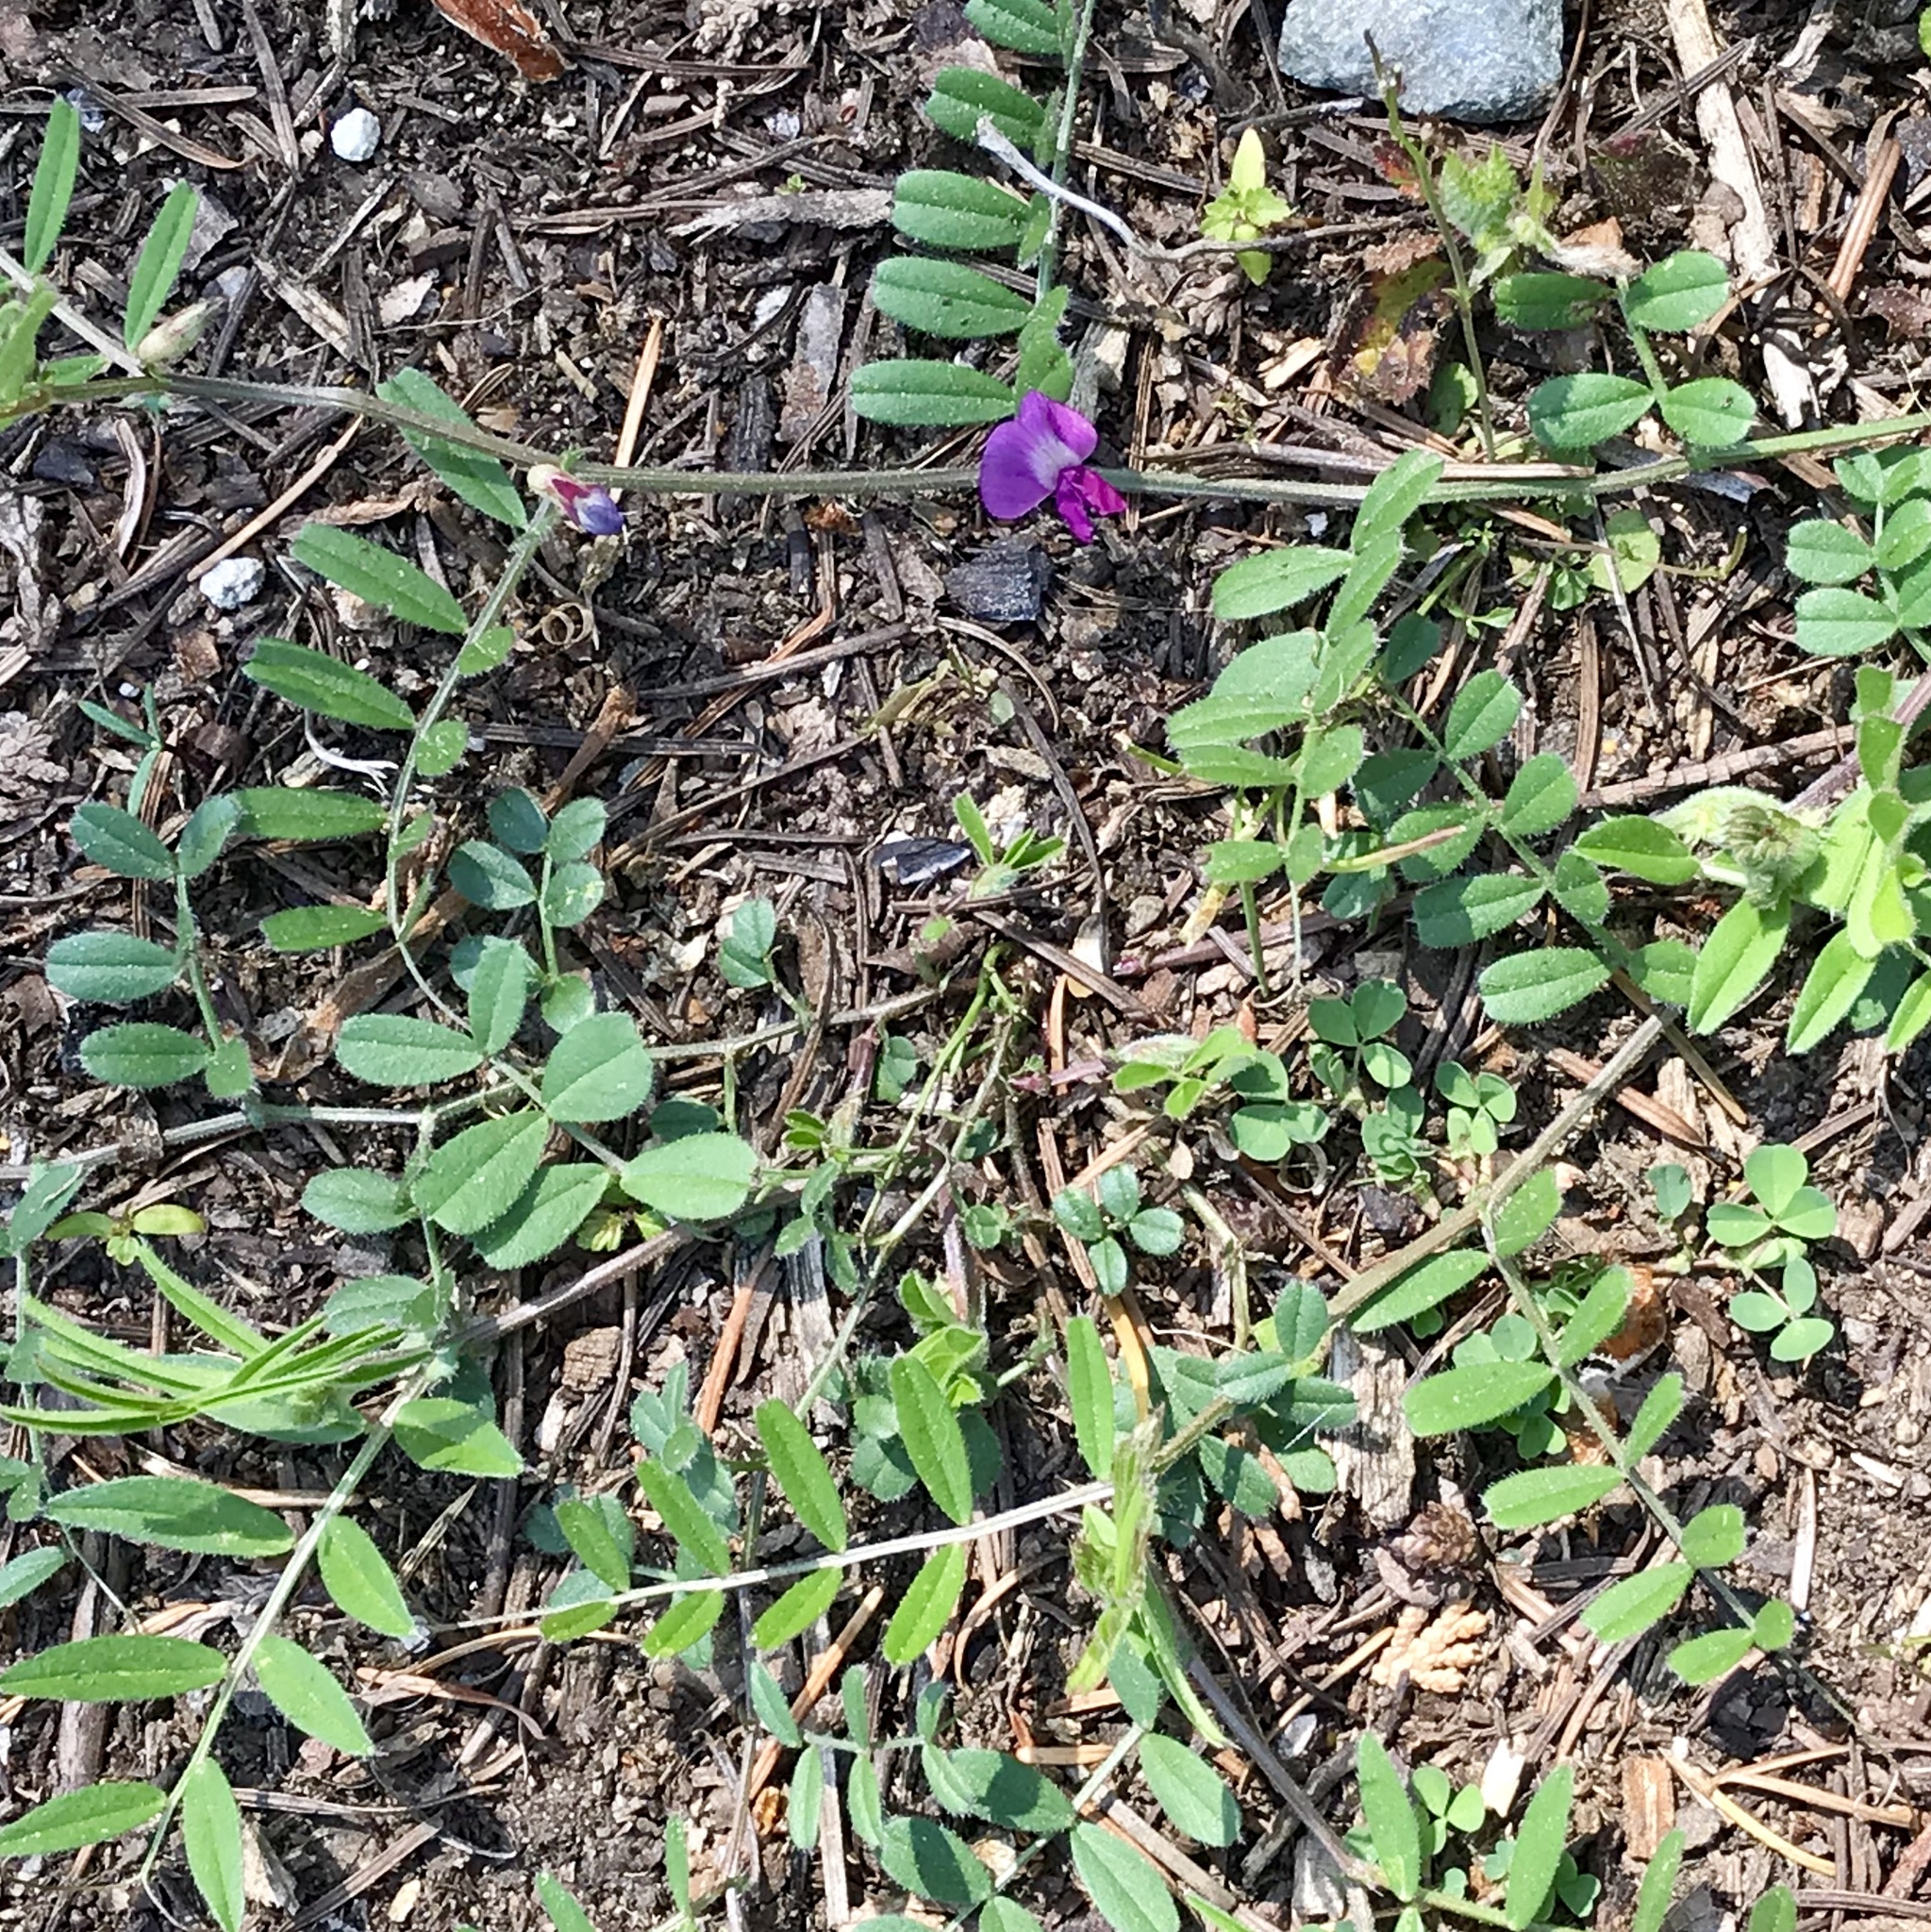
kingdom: Plantae
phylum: Tracheophyta
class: Magnoliopsida
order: Fabales
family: Fabaceae
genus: Vicia
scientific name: Vicia sativa
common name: Garden vetch
